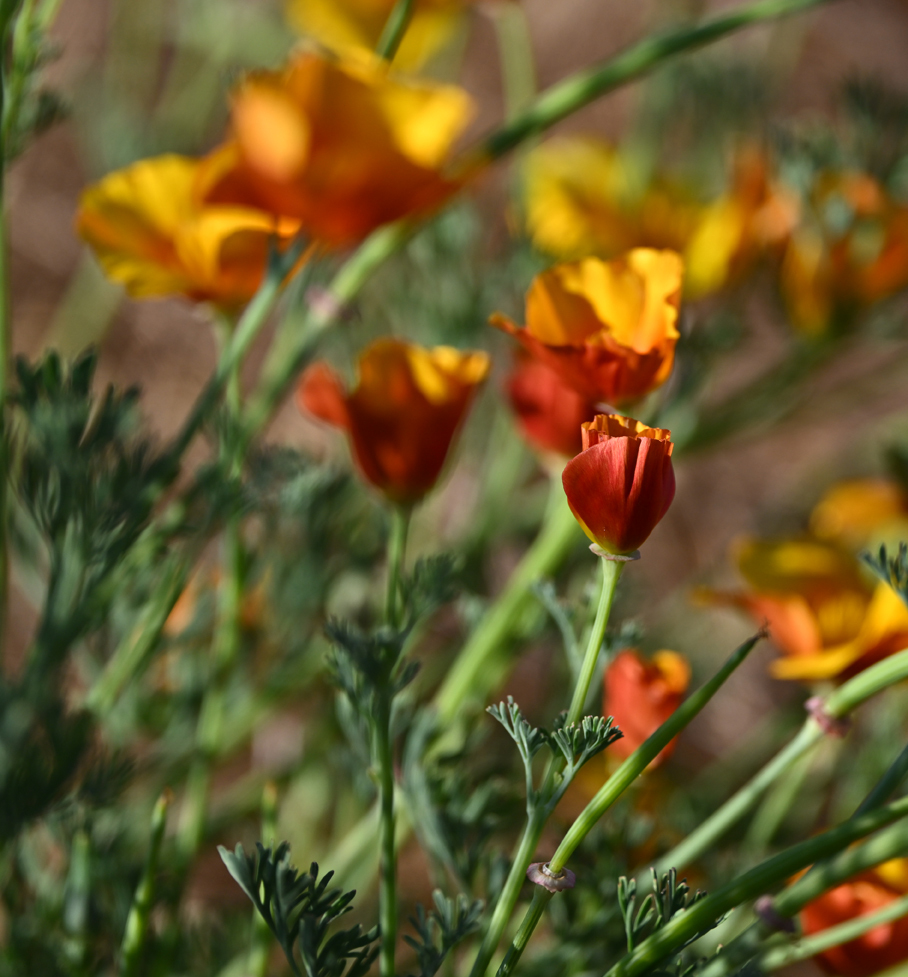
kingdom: Plantae
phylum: Tracheophyta
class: Magnoliopsida
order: Ranunculales
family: Papaveraceae
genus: Eschscholzia
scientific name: Eschscholzia californica
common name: California poppy
